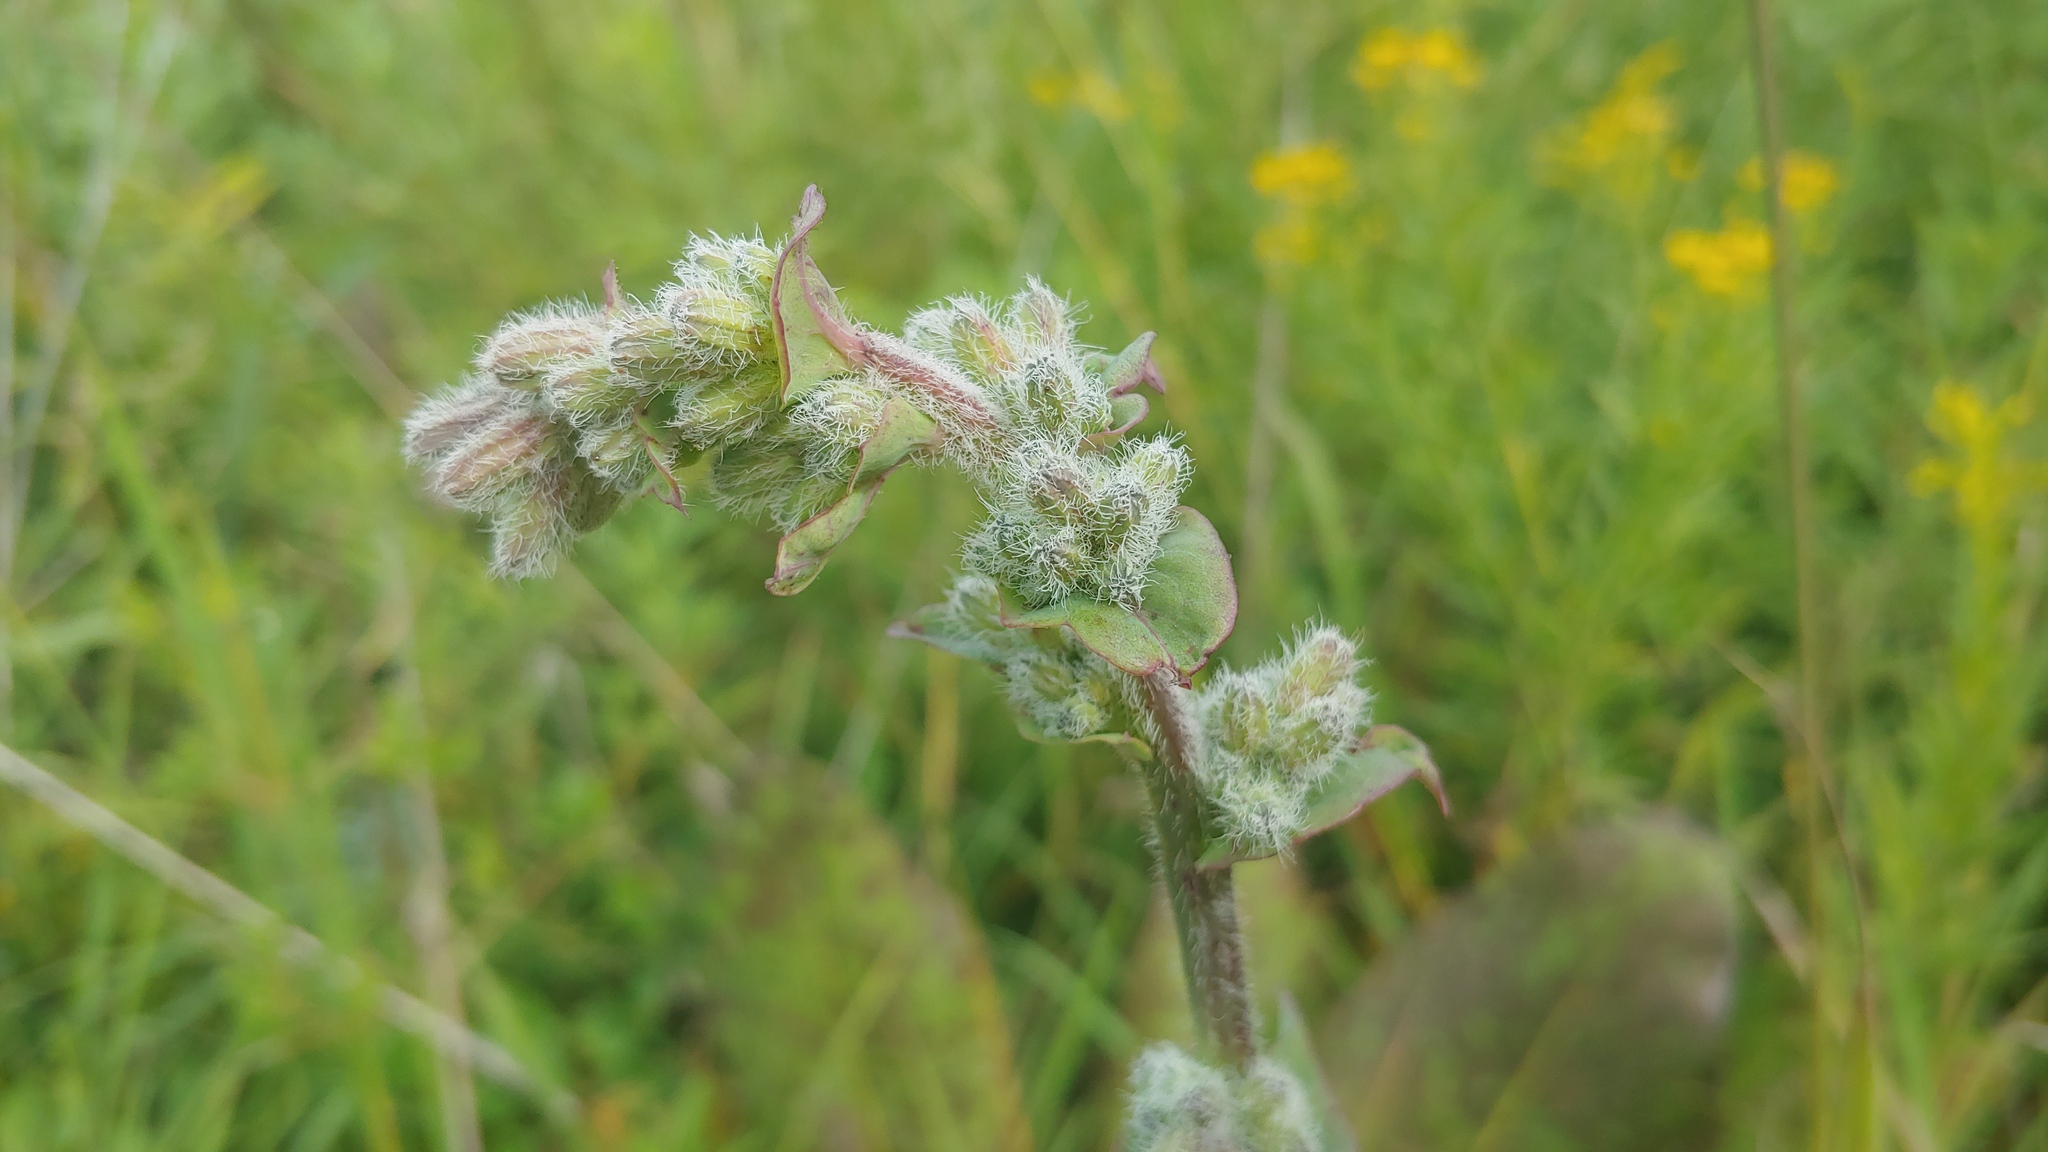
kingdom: Plantae
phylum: Tracheophyta
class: Magnoliopsida
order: Asterales
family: Asteraceae
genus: Nabalus
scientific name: Nabalus racemosus
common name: Glaucous white lettuce
